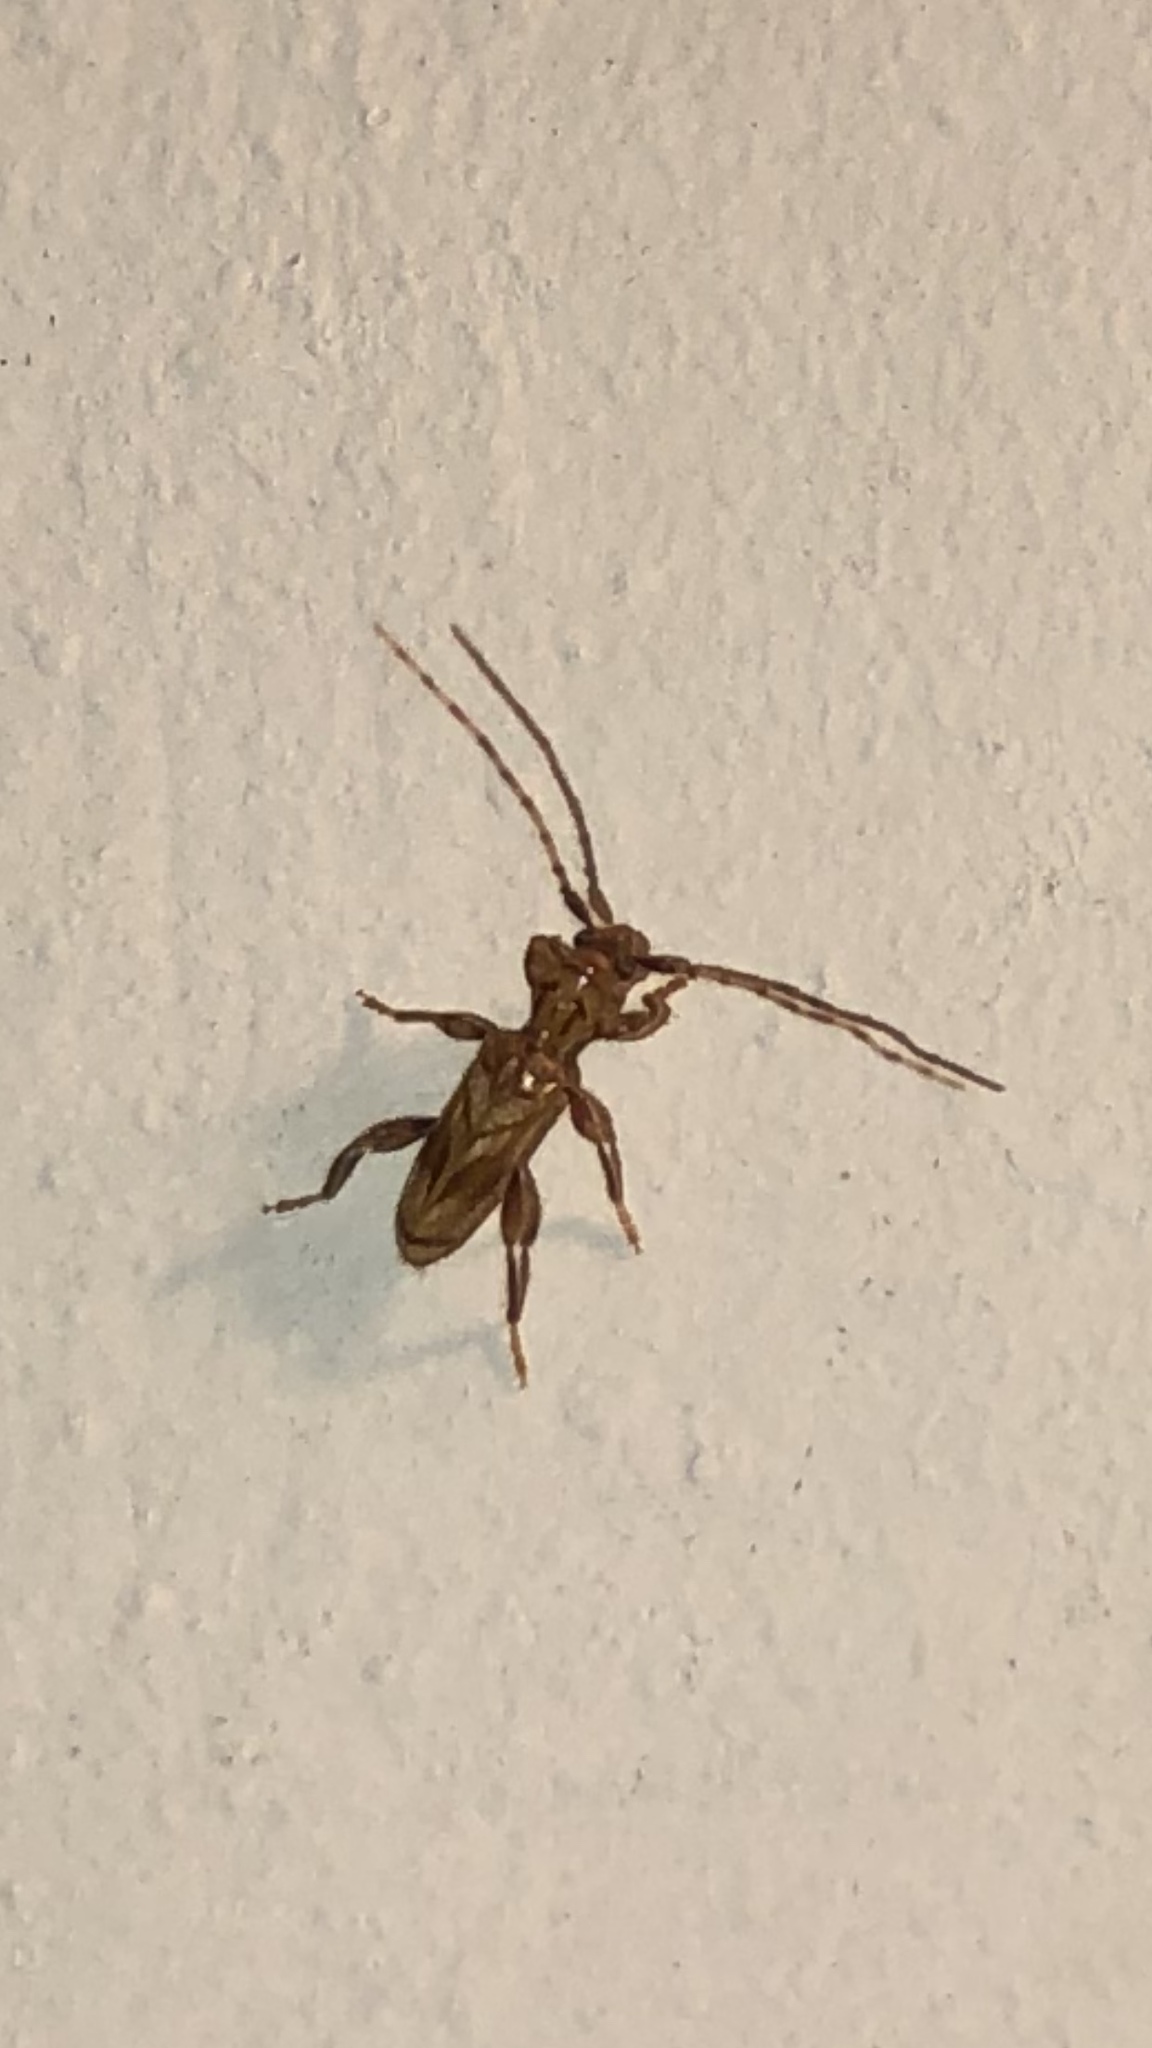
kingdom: Animalia
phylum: Arthropoda
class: Insecta
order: Coleoptera
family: Cerambycidae
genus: Obrium
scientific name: Obrium maculatum
